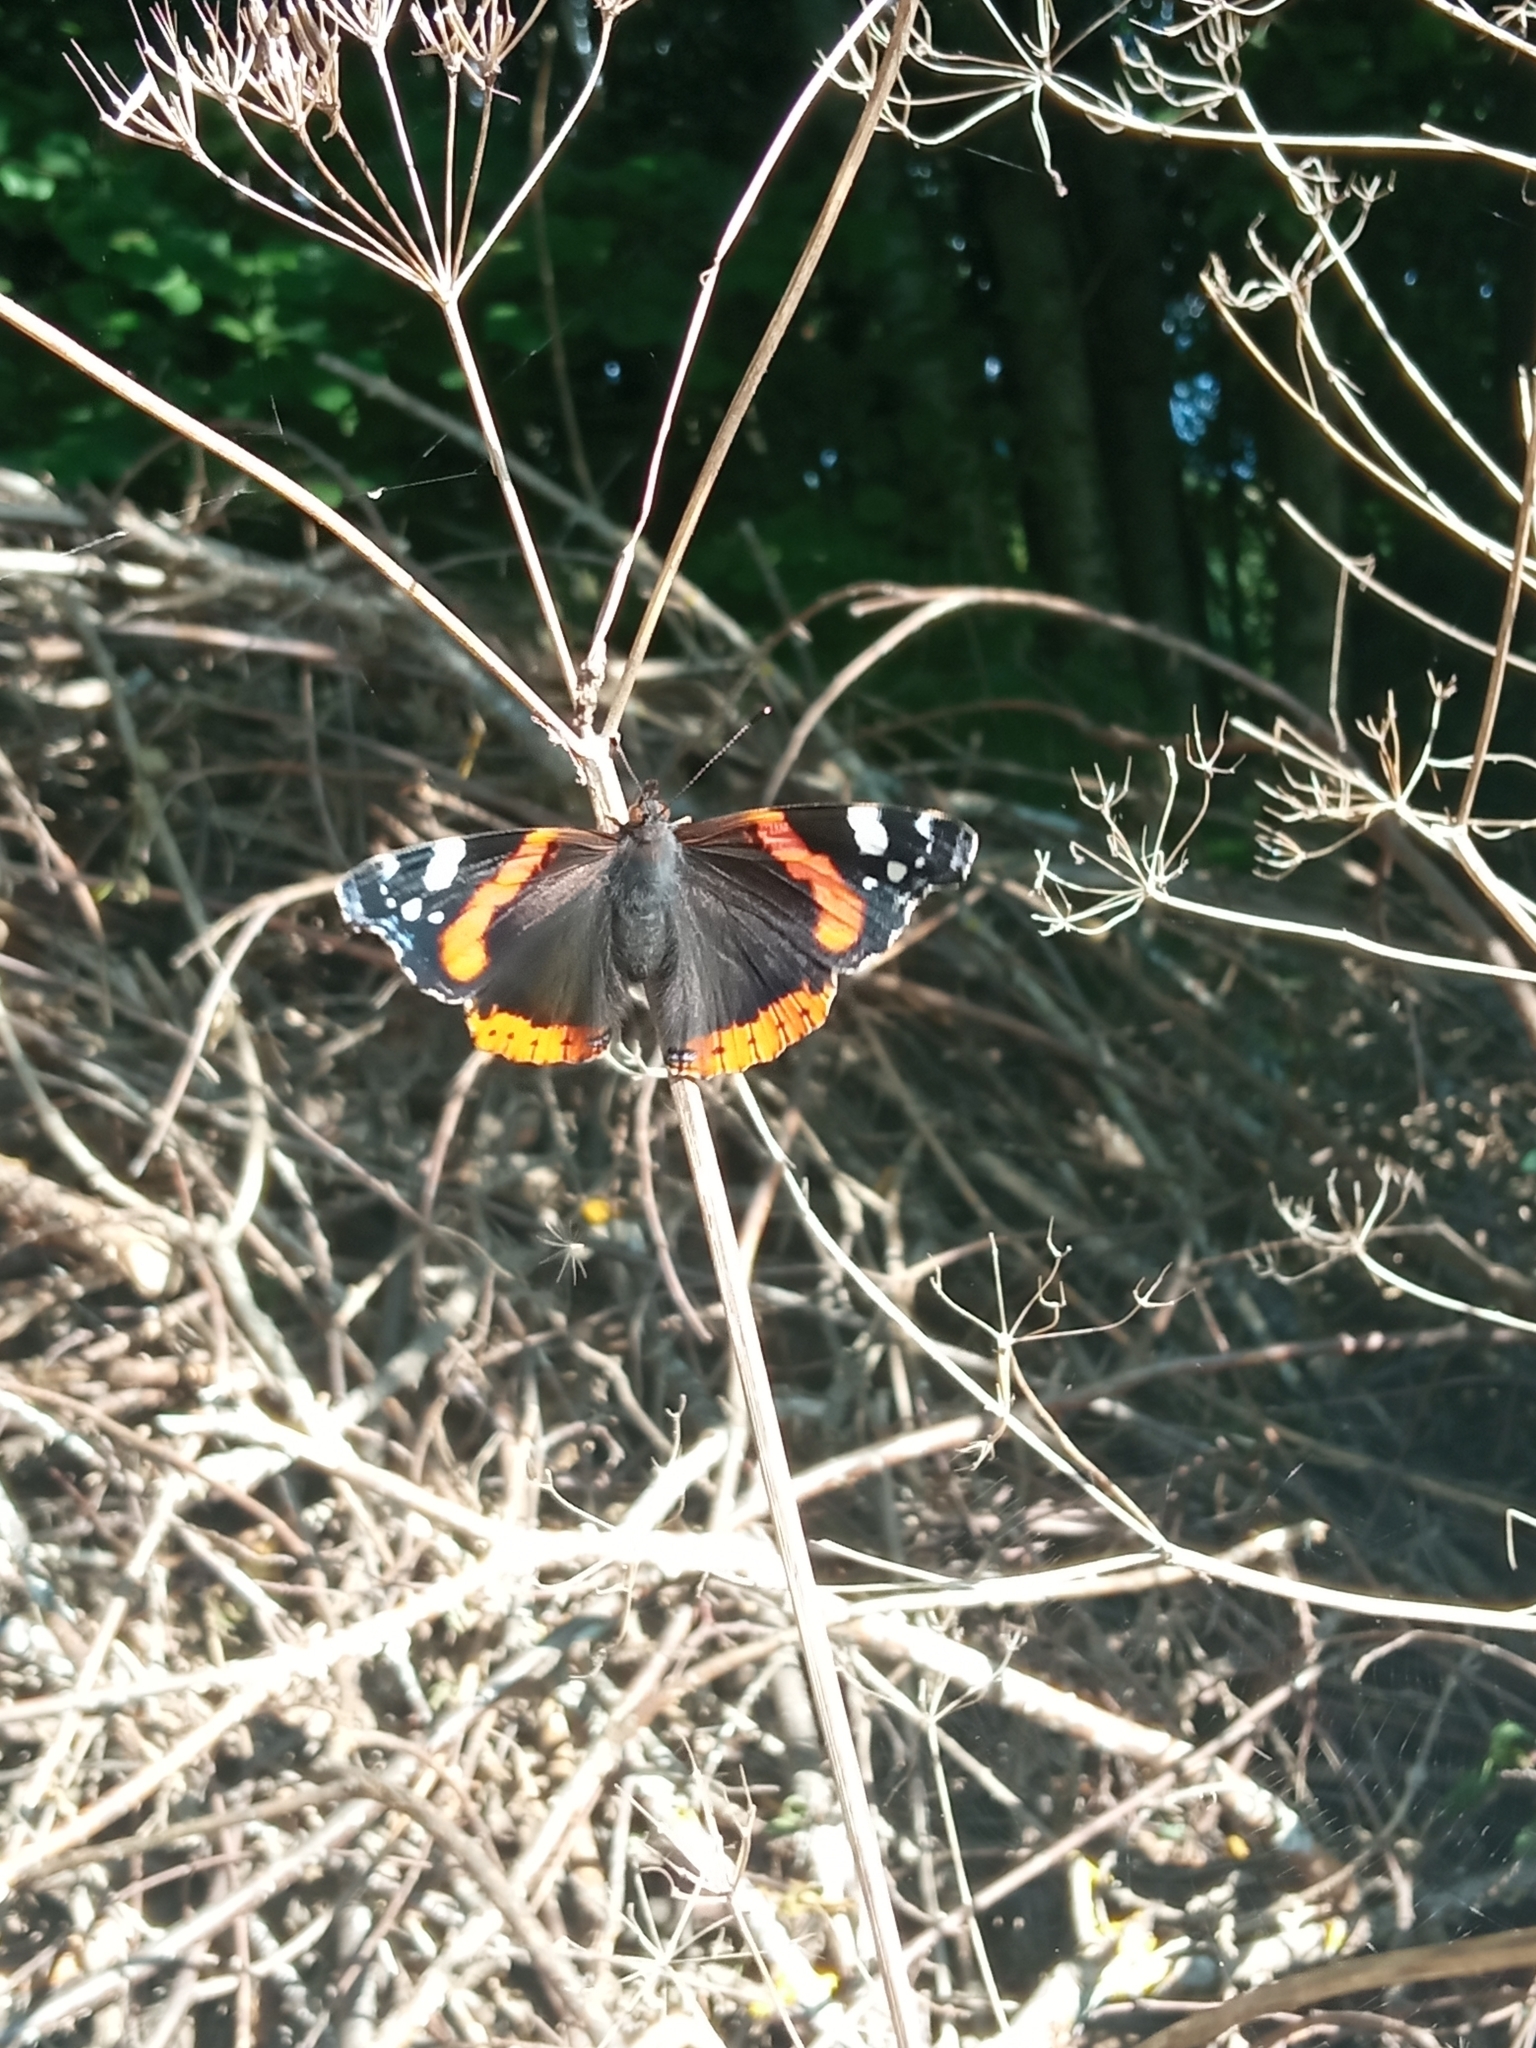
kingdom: Animalia
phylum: Arthropoda
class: Insecta
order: Lepidoptera
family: Nymphalidae
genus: Vanessa
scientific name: Vanessa atalanta
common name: Red admiral
